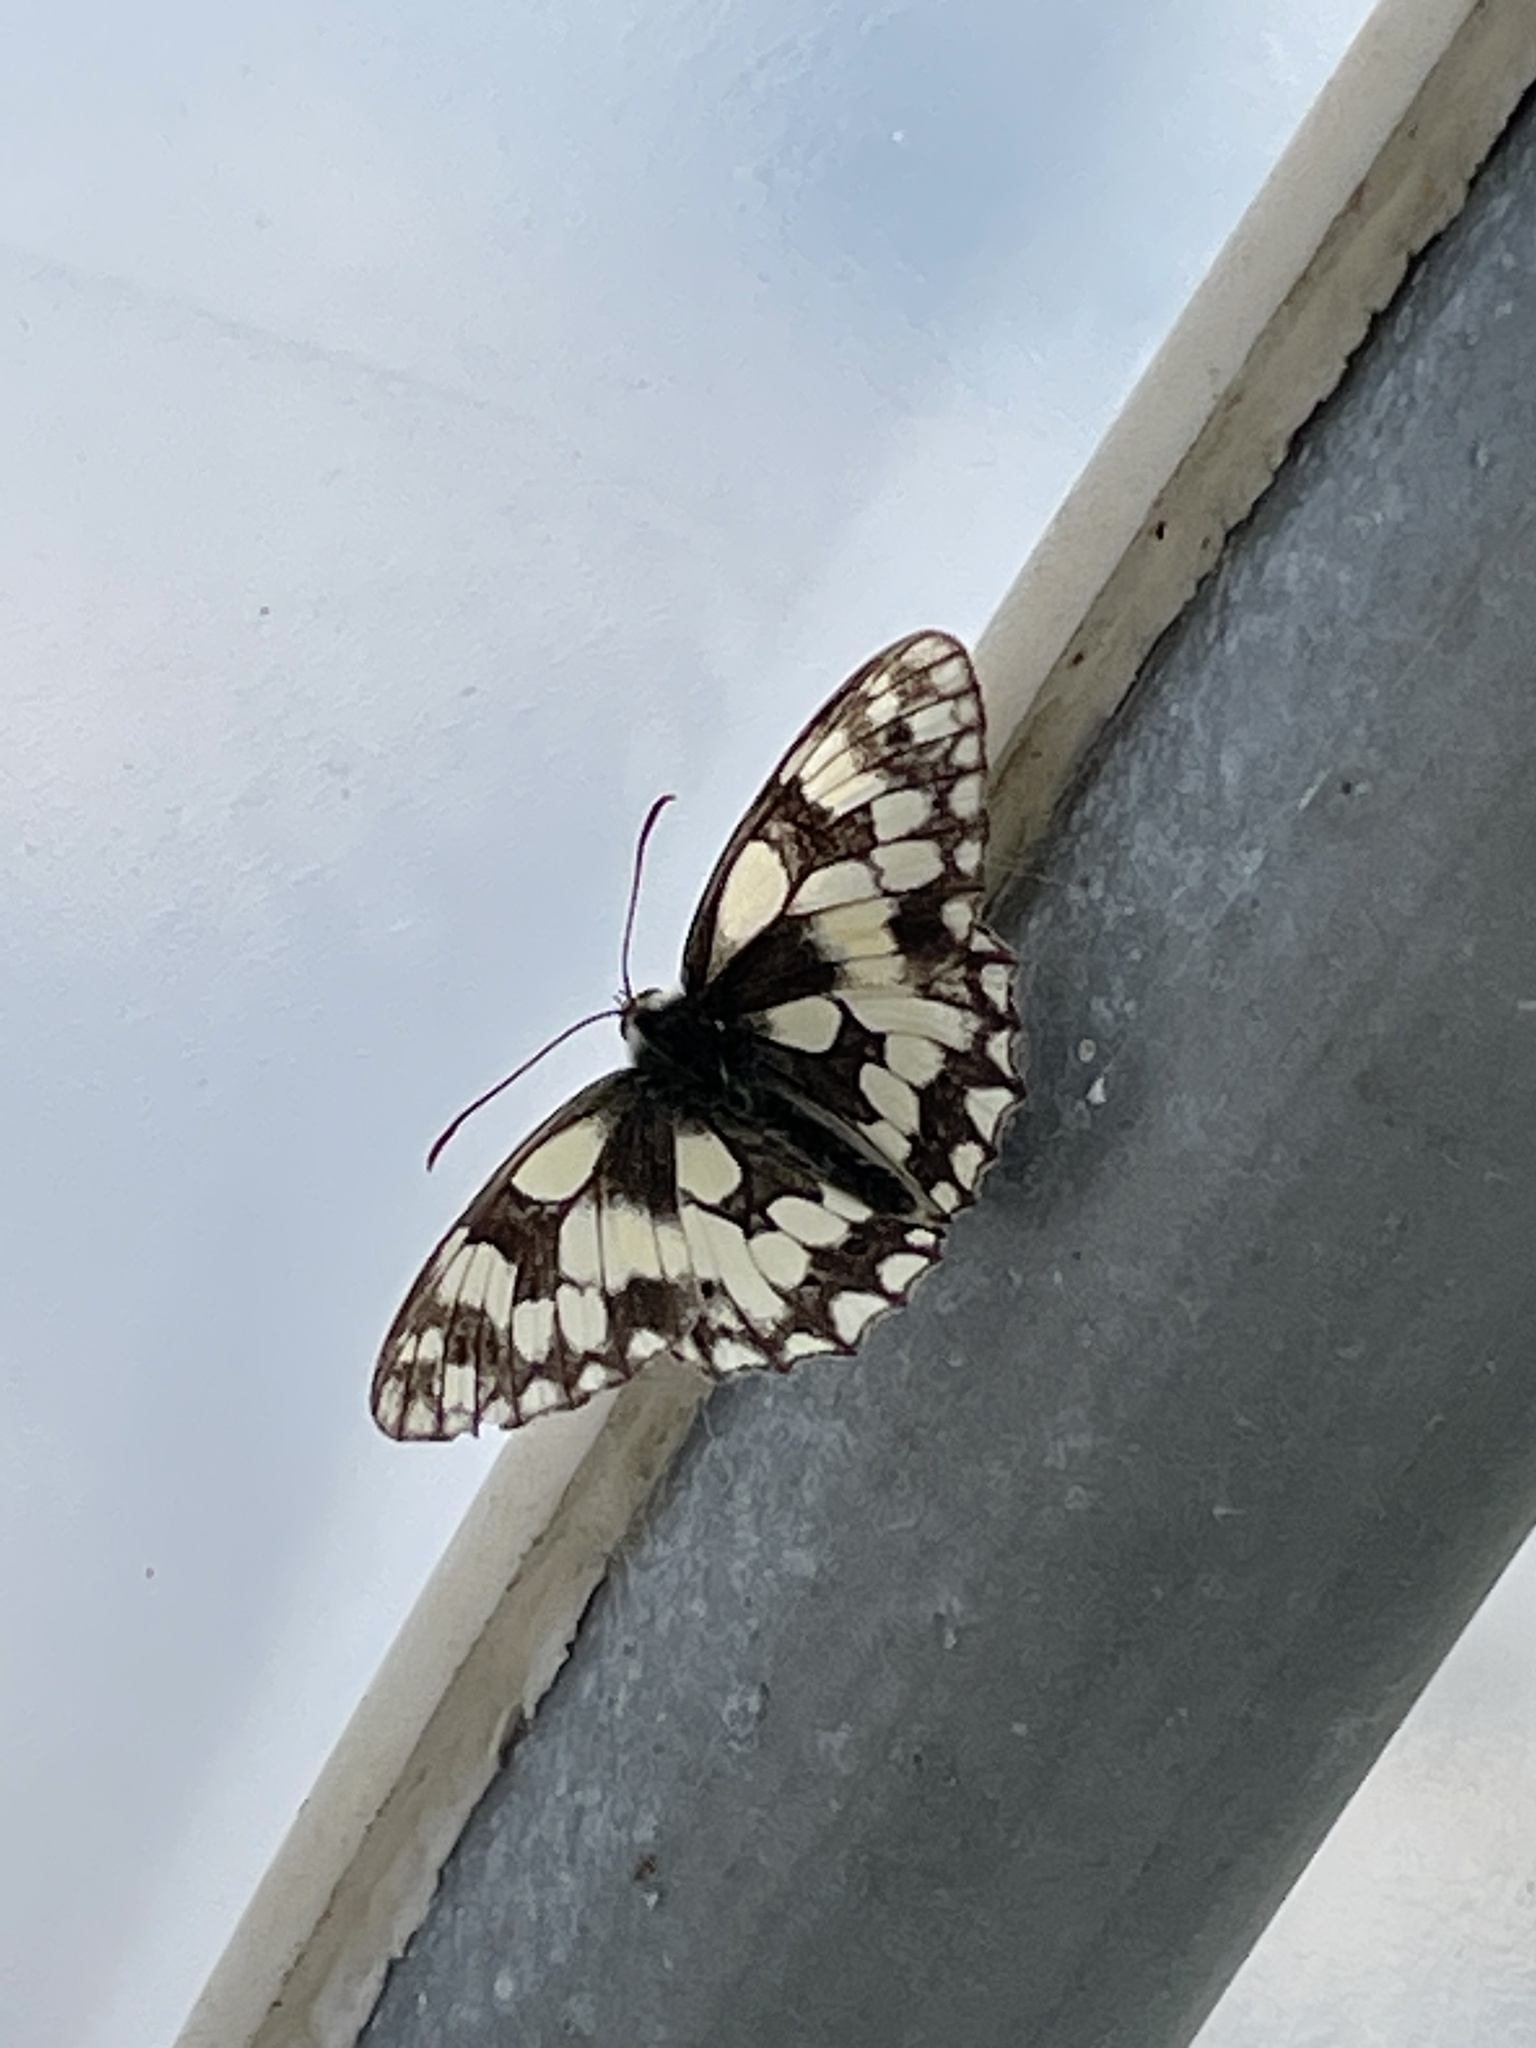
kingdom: Animalia
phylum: Arthropoda
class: Insecta
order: Lepidoptera
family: Nymphalidae
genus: Melanargia
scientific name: Melanargia galathea
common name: Marbled white
